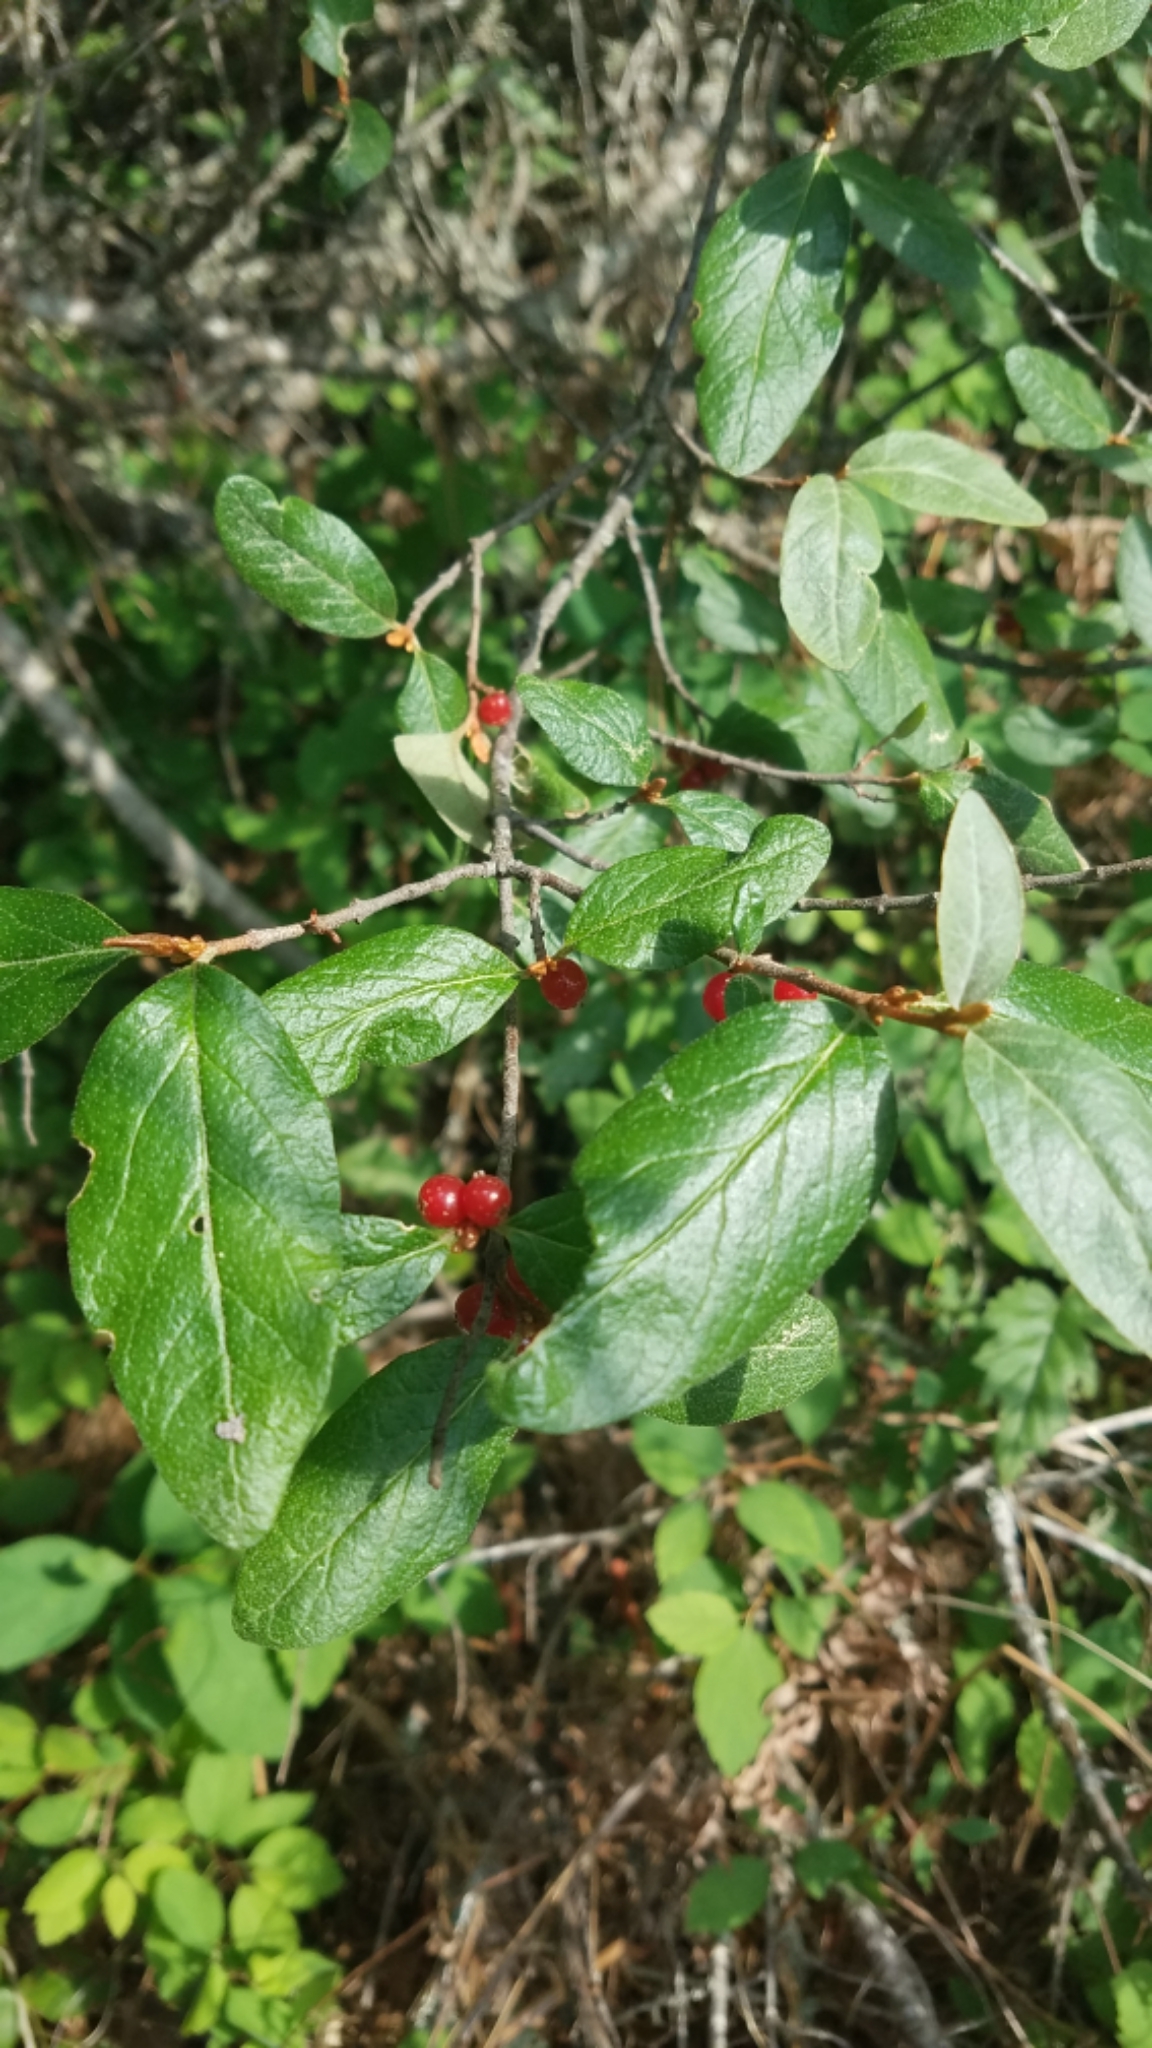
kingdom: Plantae
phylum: Tracheophyta
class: Magnoliopsida
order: Rosales
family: Elaeagnaceae
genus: Shepherdia
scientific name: Shepherdia canadensis
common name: Soapberry
